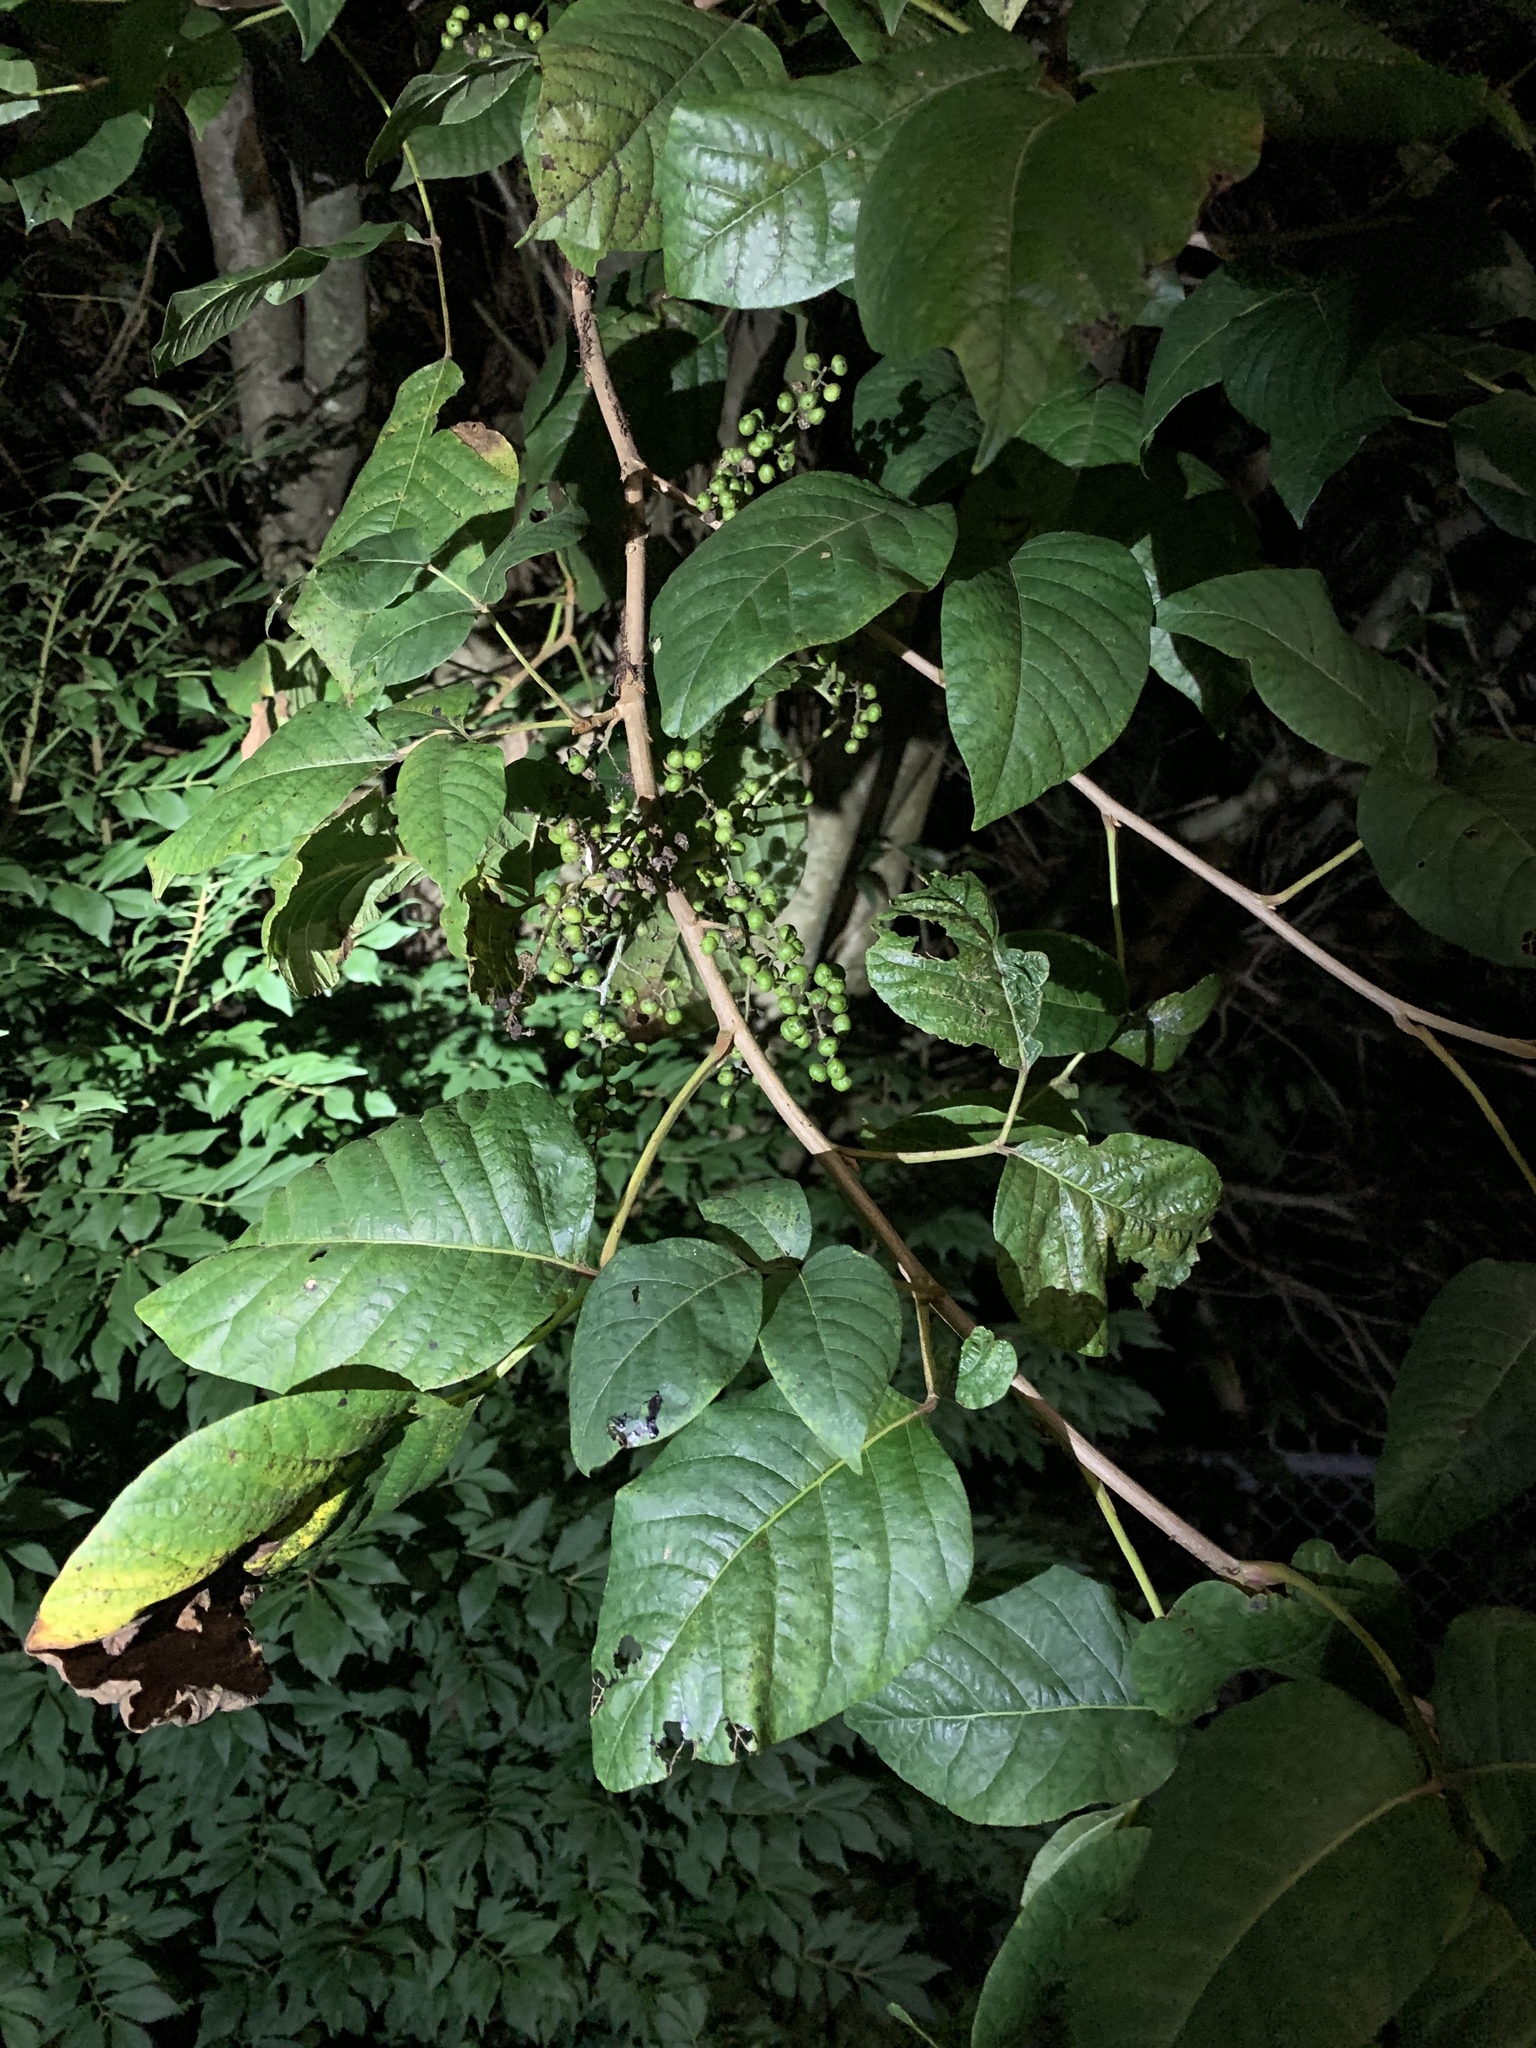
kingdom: Plantae
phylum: Tracheophyta
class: Magnoliopsida
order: Sapindales
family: Anacardiaceae
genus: Toxicodendron
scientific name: Toxicodendron radicans
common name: Poison ivy
